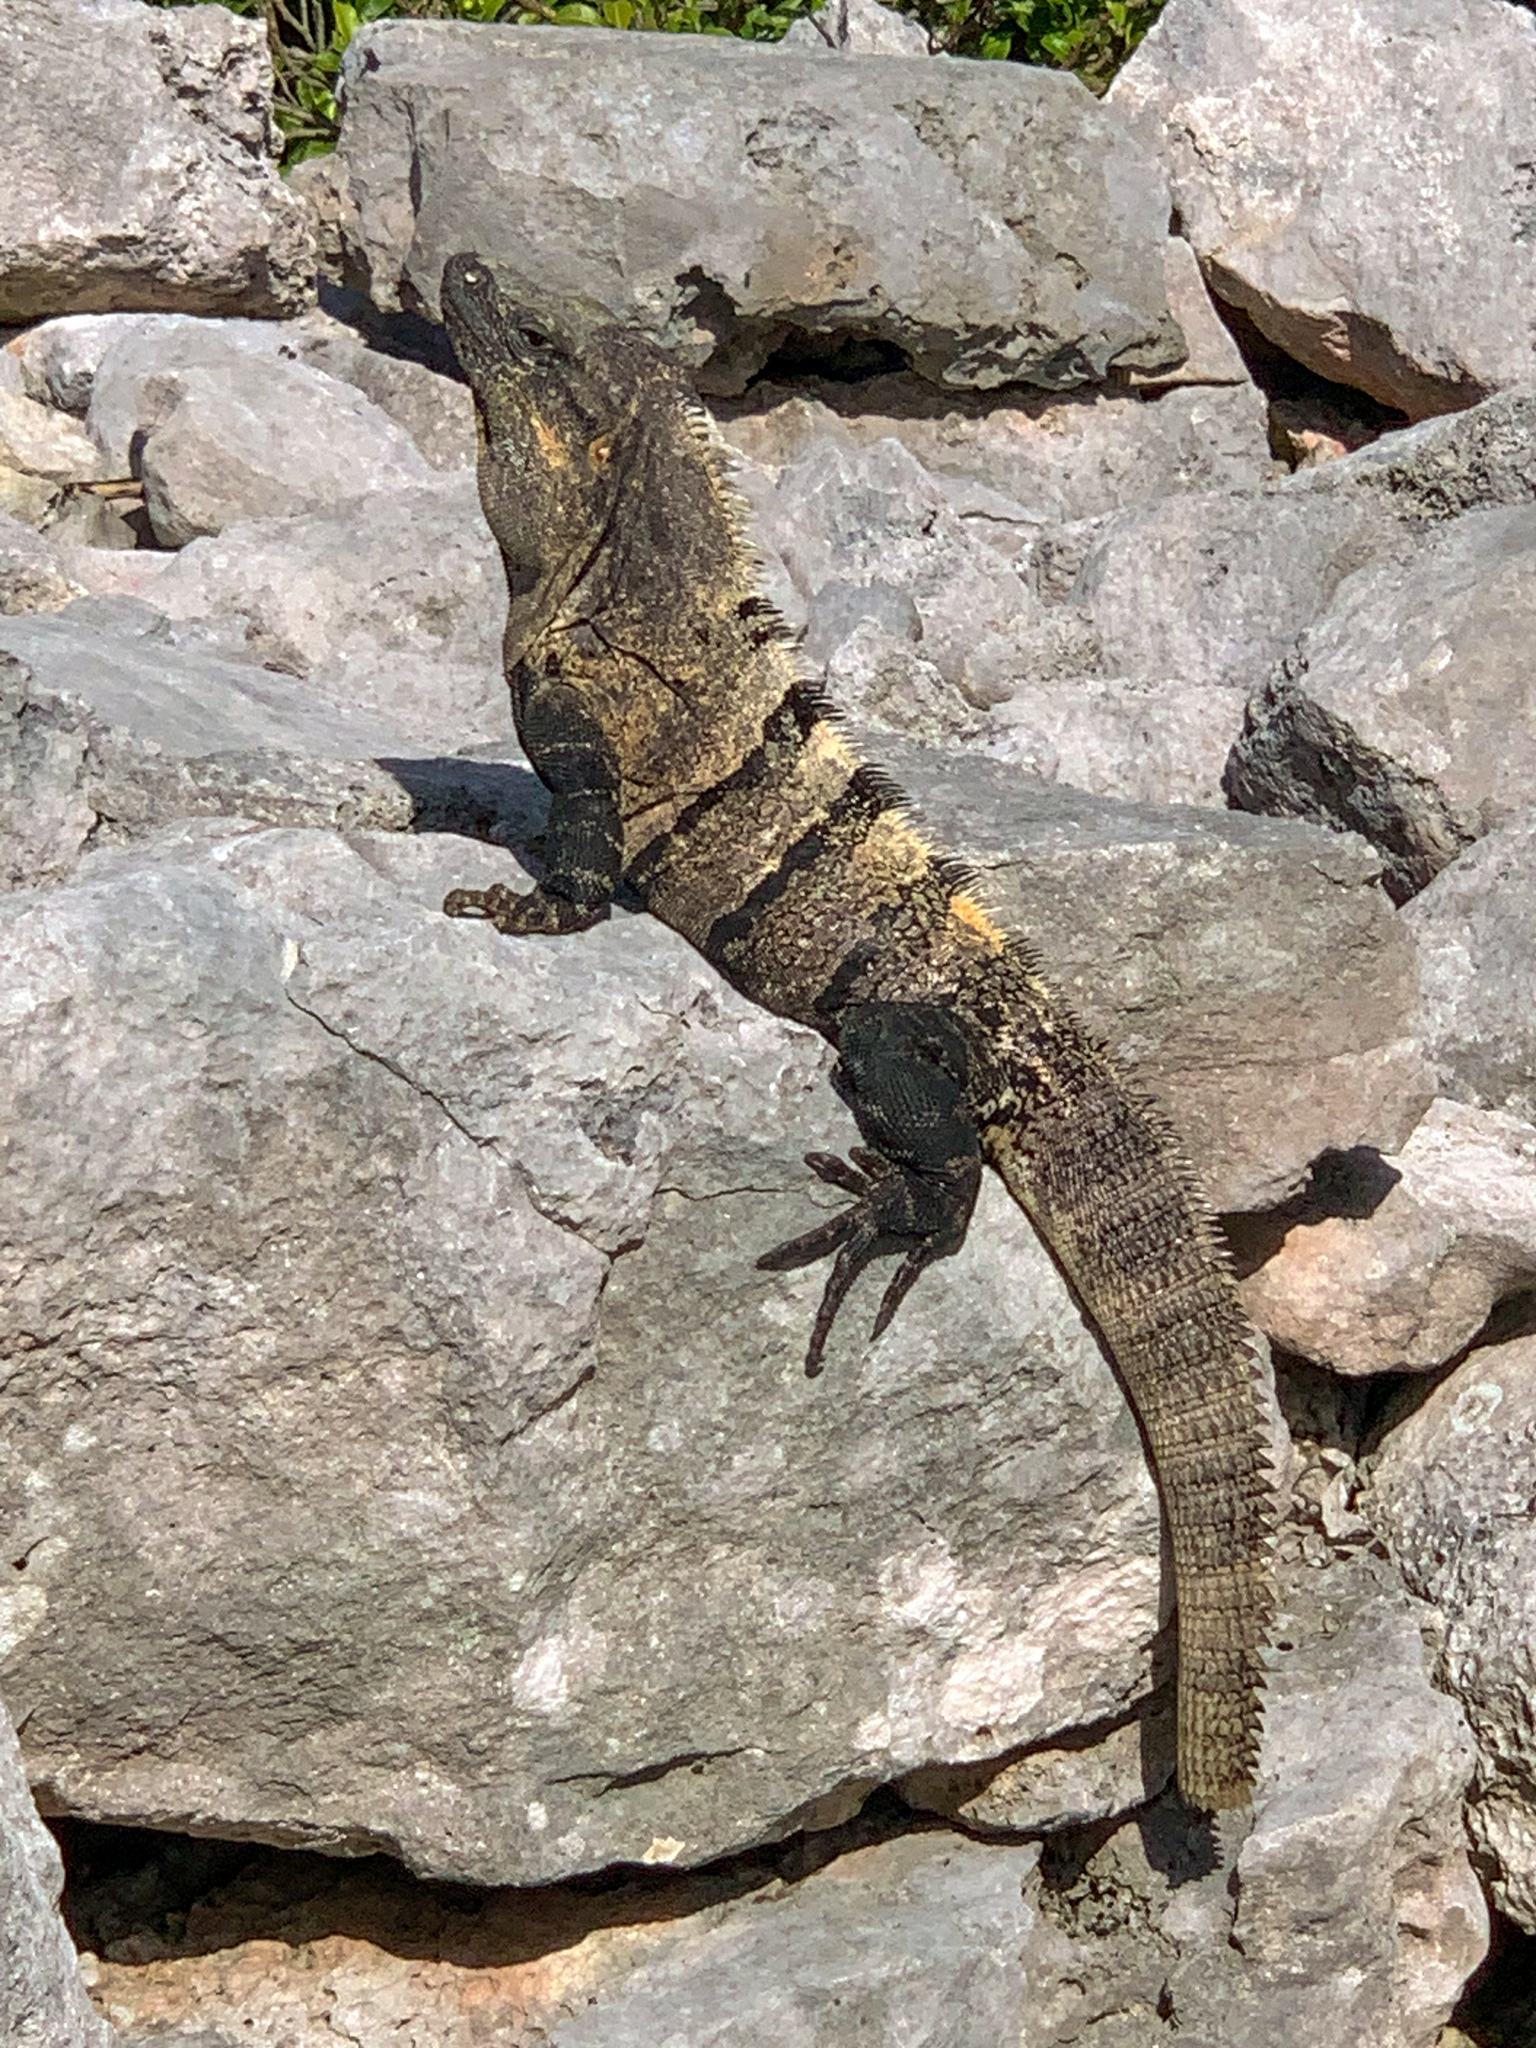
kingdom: Animalia
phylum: Chordata
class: Squamata
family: Iguanidae
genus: Ctenosaura
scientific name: Ctenosaura similis
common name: Black spiny-tailed iguana
